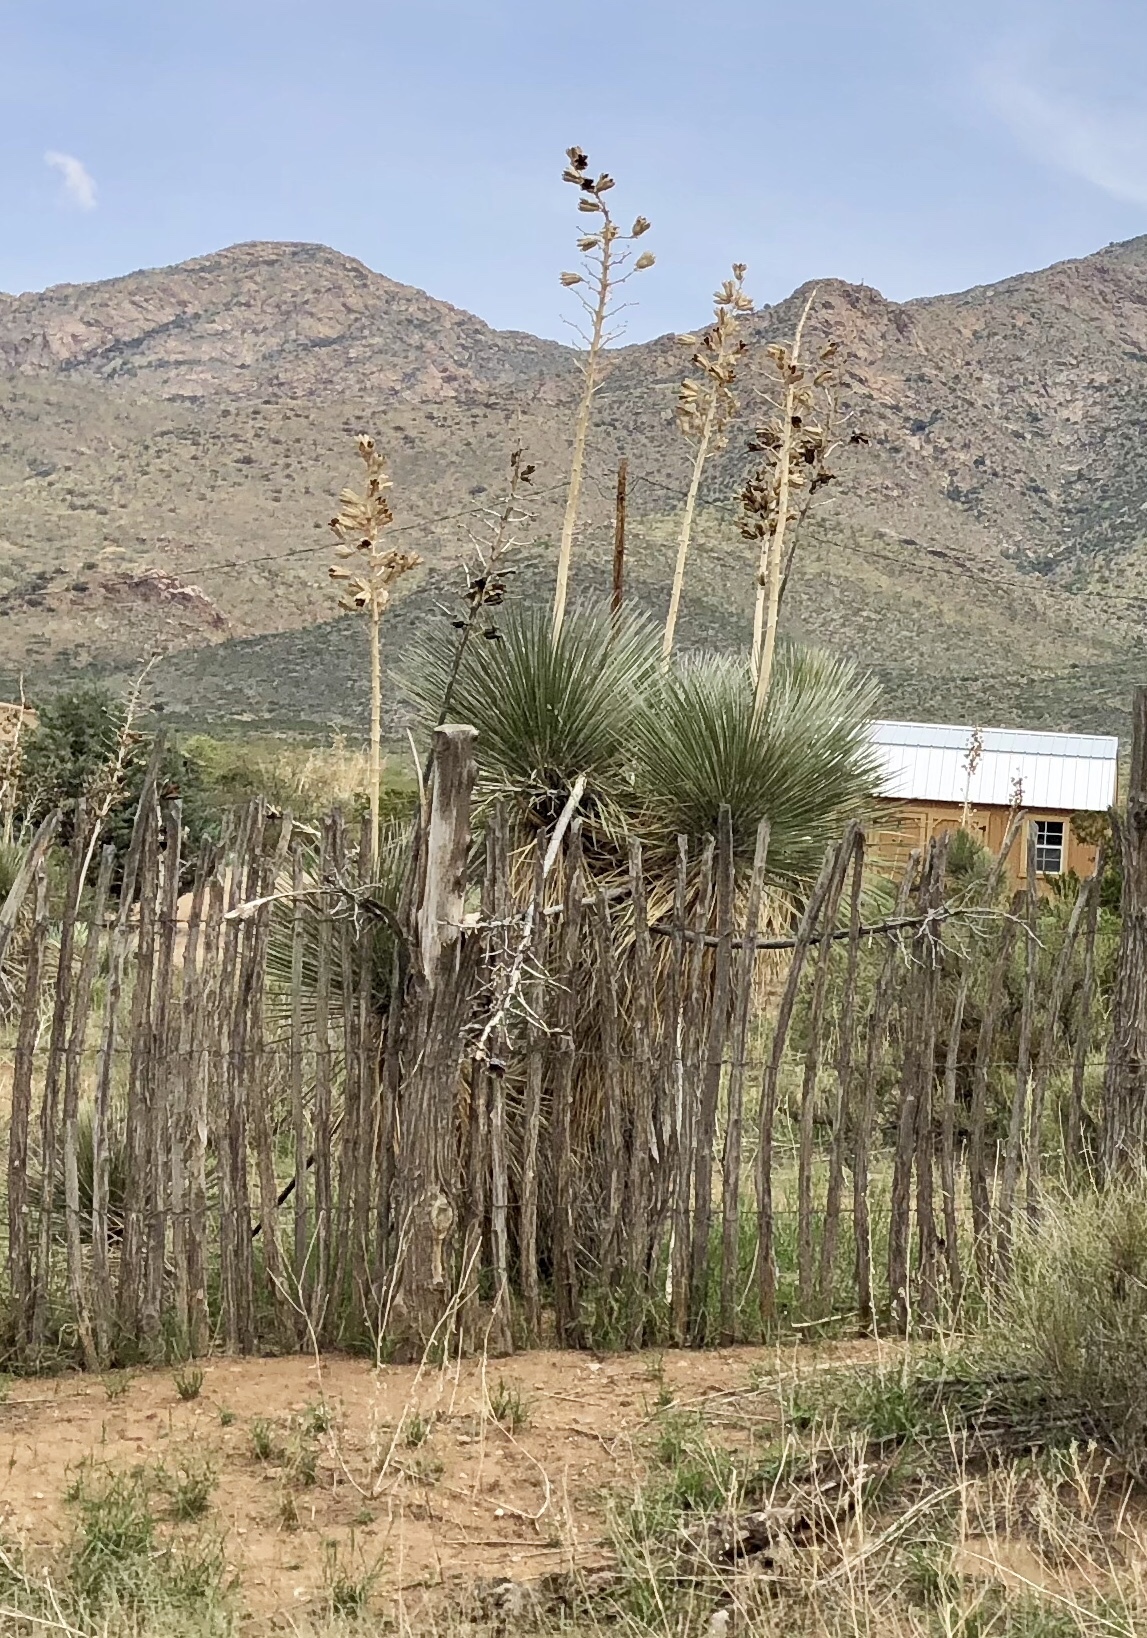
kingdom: Plantae
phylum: Tracheophyta
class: Liliopsida
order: Asparagales
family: Asparagaceae
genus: Yucca
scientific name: Yucca elata
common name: Palmella
